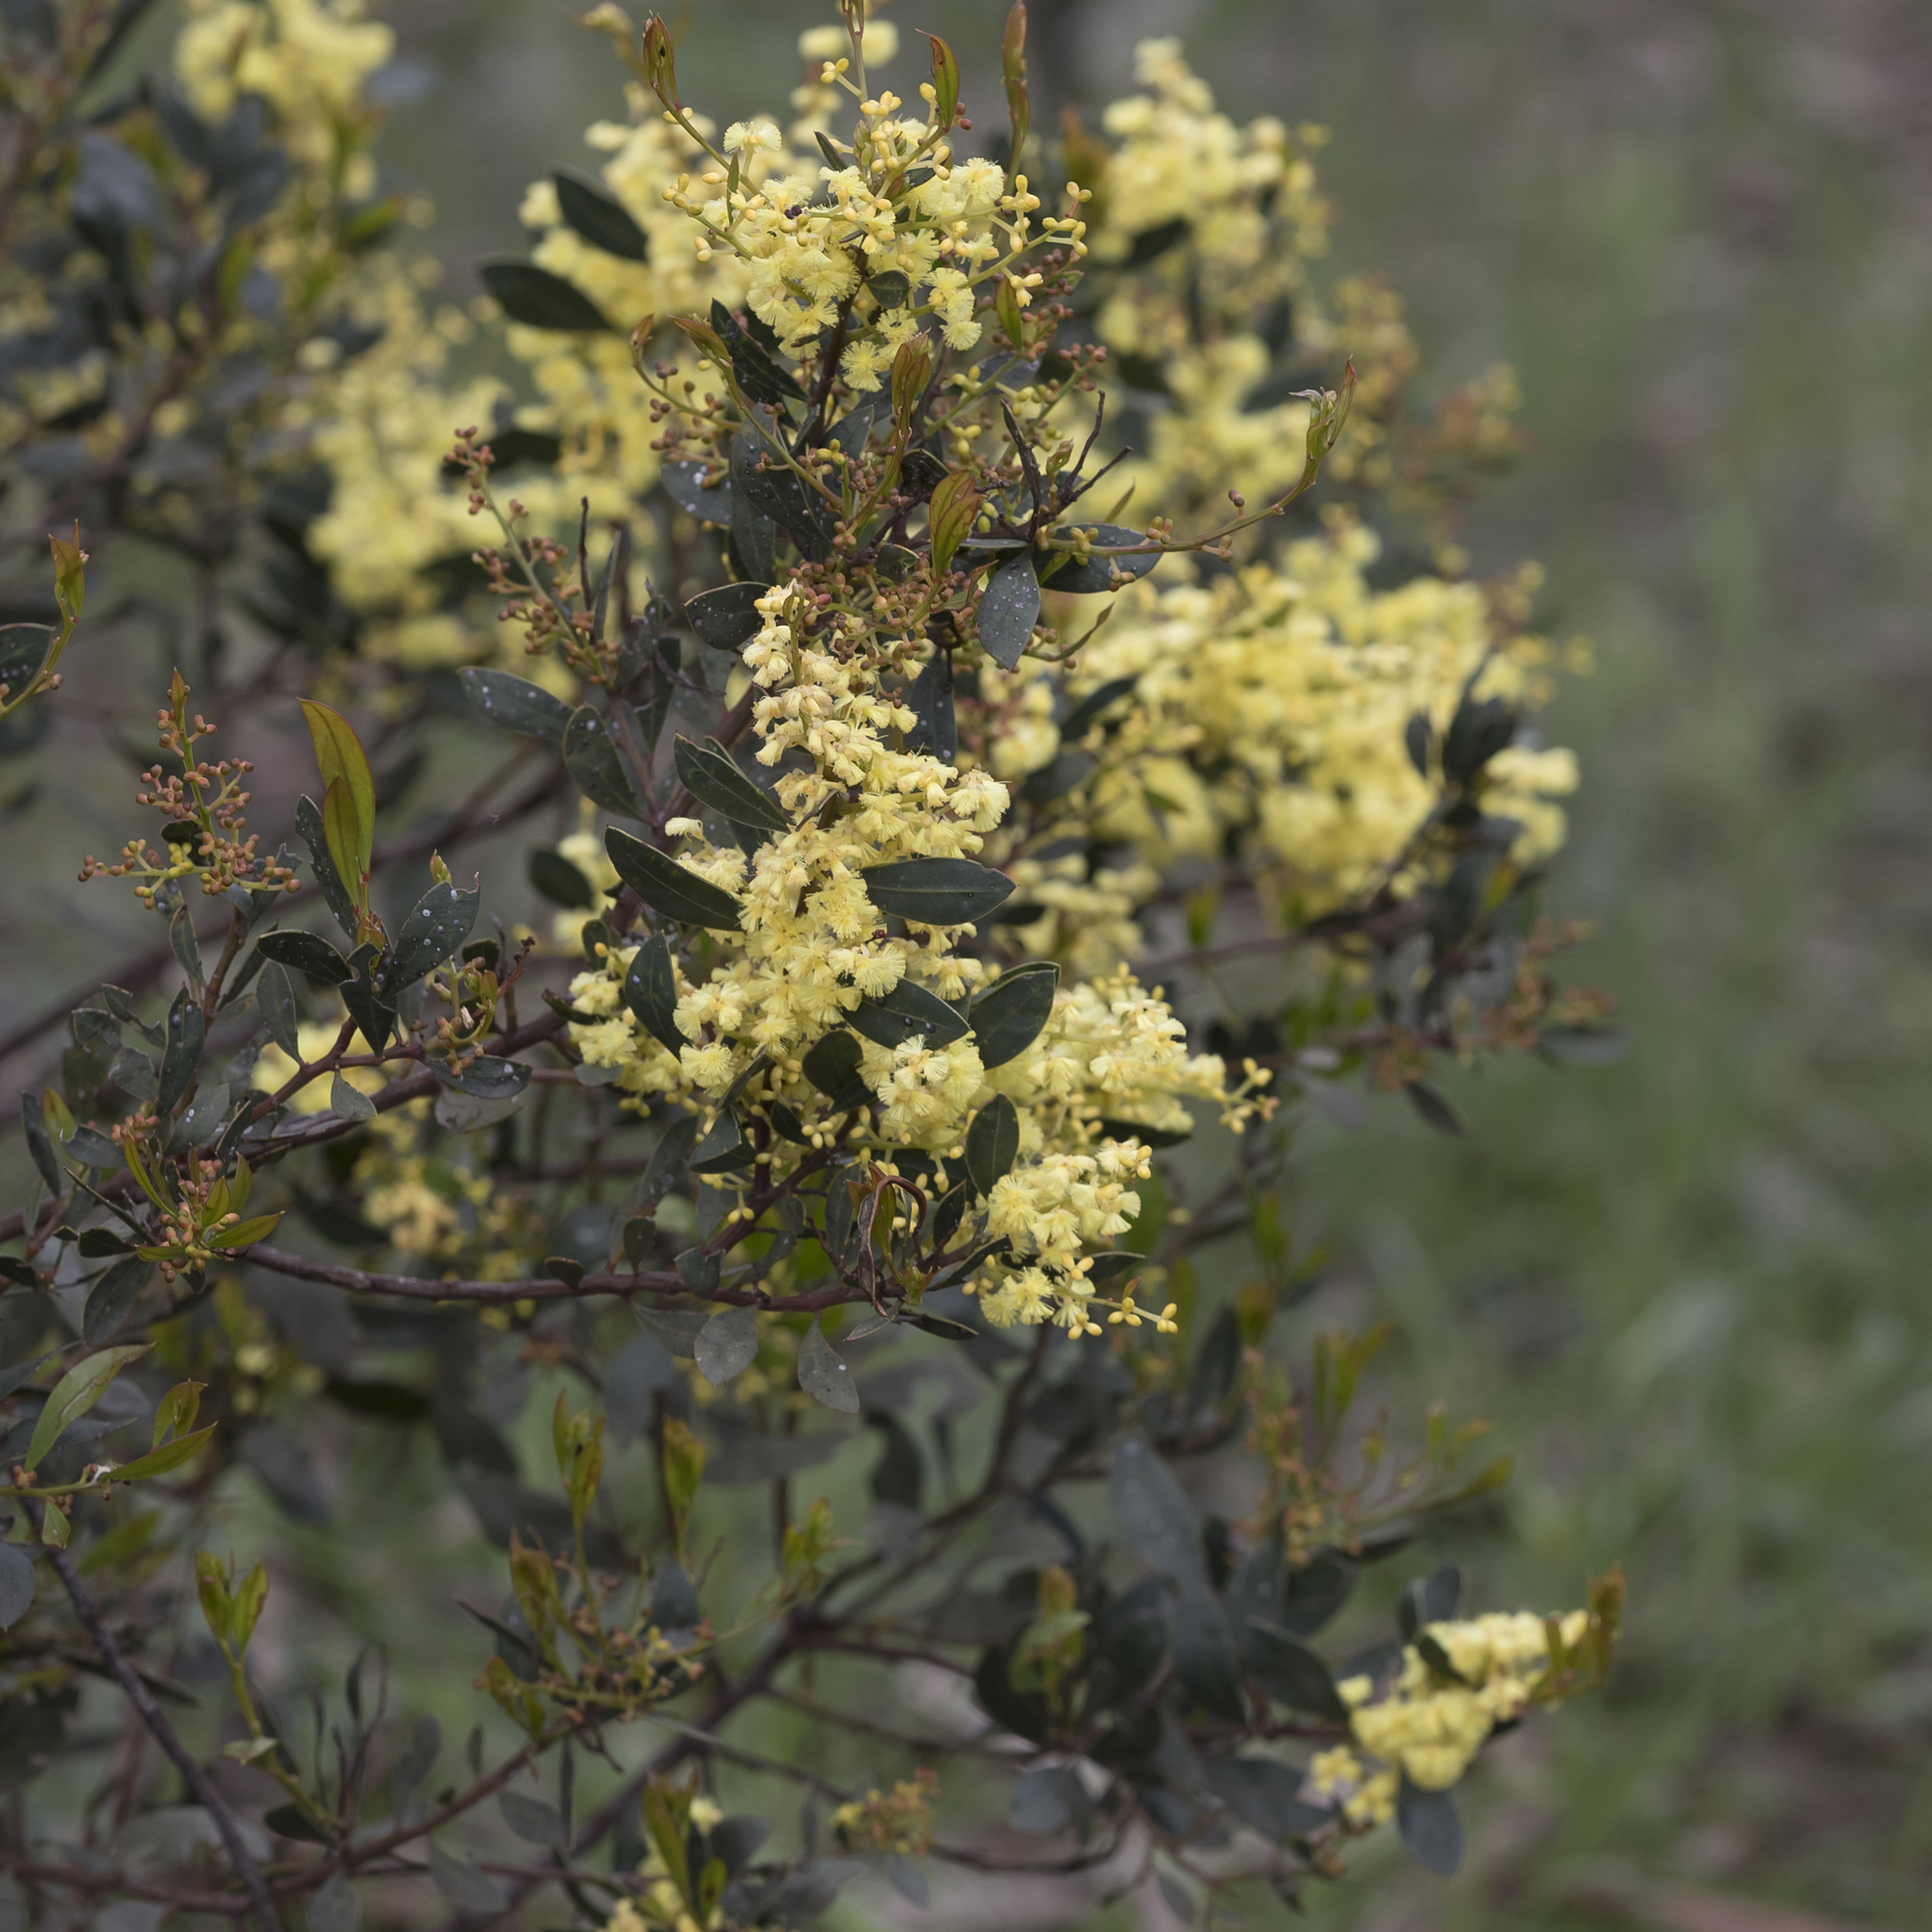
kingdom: Plantae
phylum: Tracheophyta
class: Magnoliopsida
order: Fabales
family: Fabaceae
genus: Acacia
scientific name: Acacia myrtifolia
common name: Myrtle wattle
